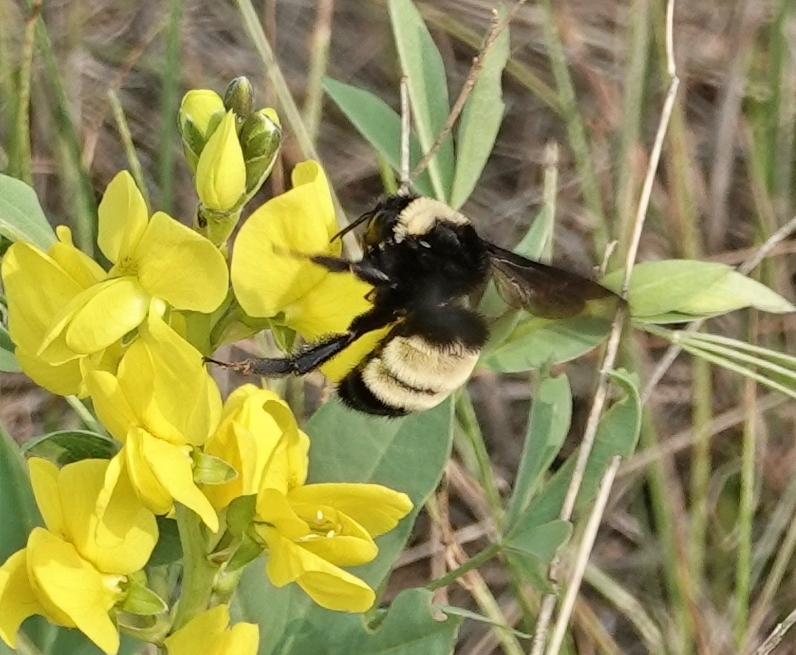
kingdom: Animalia
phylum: Arthropoda
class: Insecta
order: Hymenoptera
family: Apidae
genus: Bombus
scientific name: Bombus pensylvanicus
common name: Bumble bee
